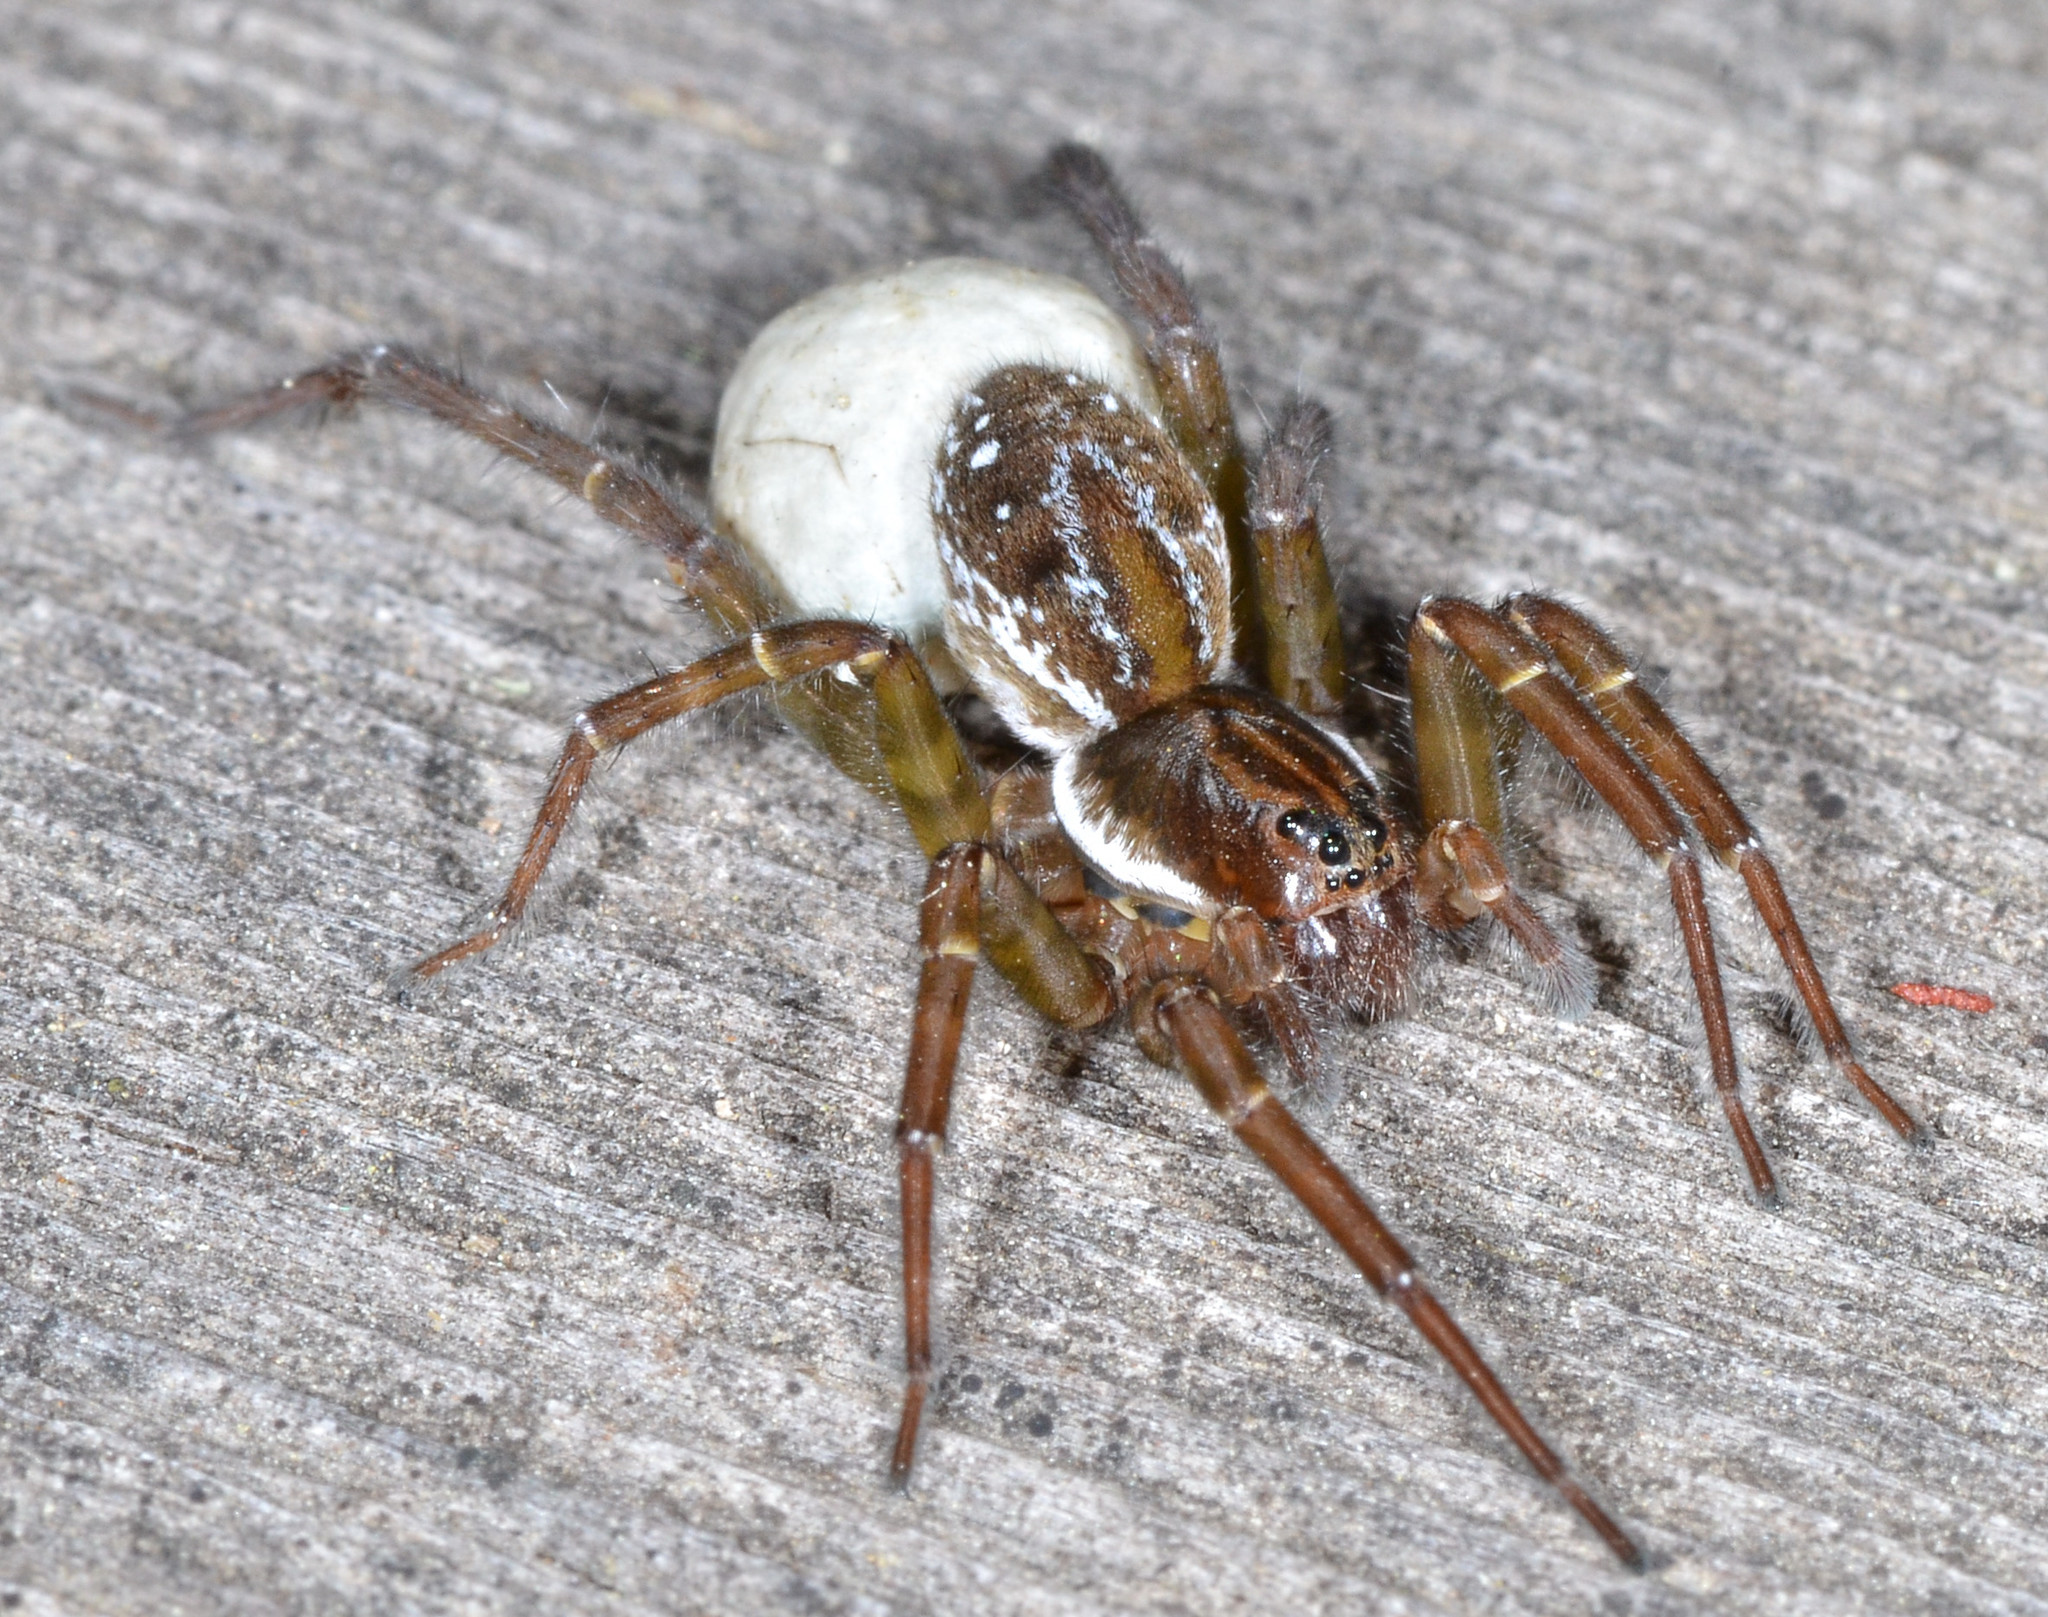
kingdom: Animalia
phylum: Arthropoda
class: Arachnida
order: Araneae
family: Lycosidae
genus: Pirata
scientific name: Pirata piraticus
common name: Pirate otter spider
